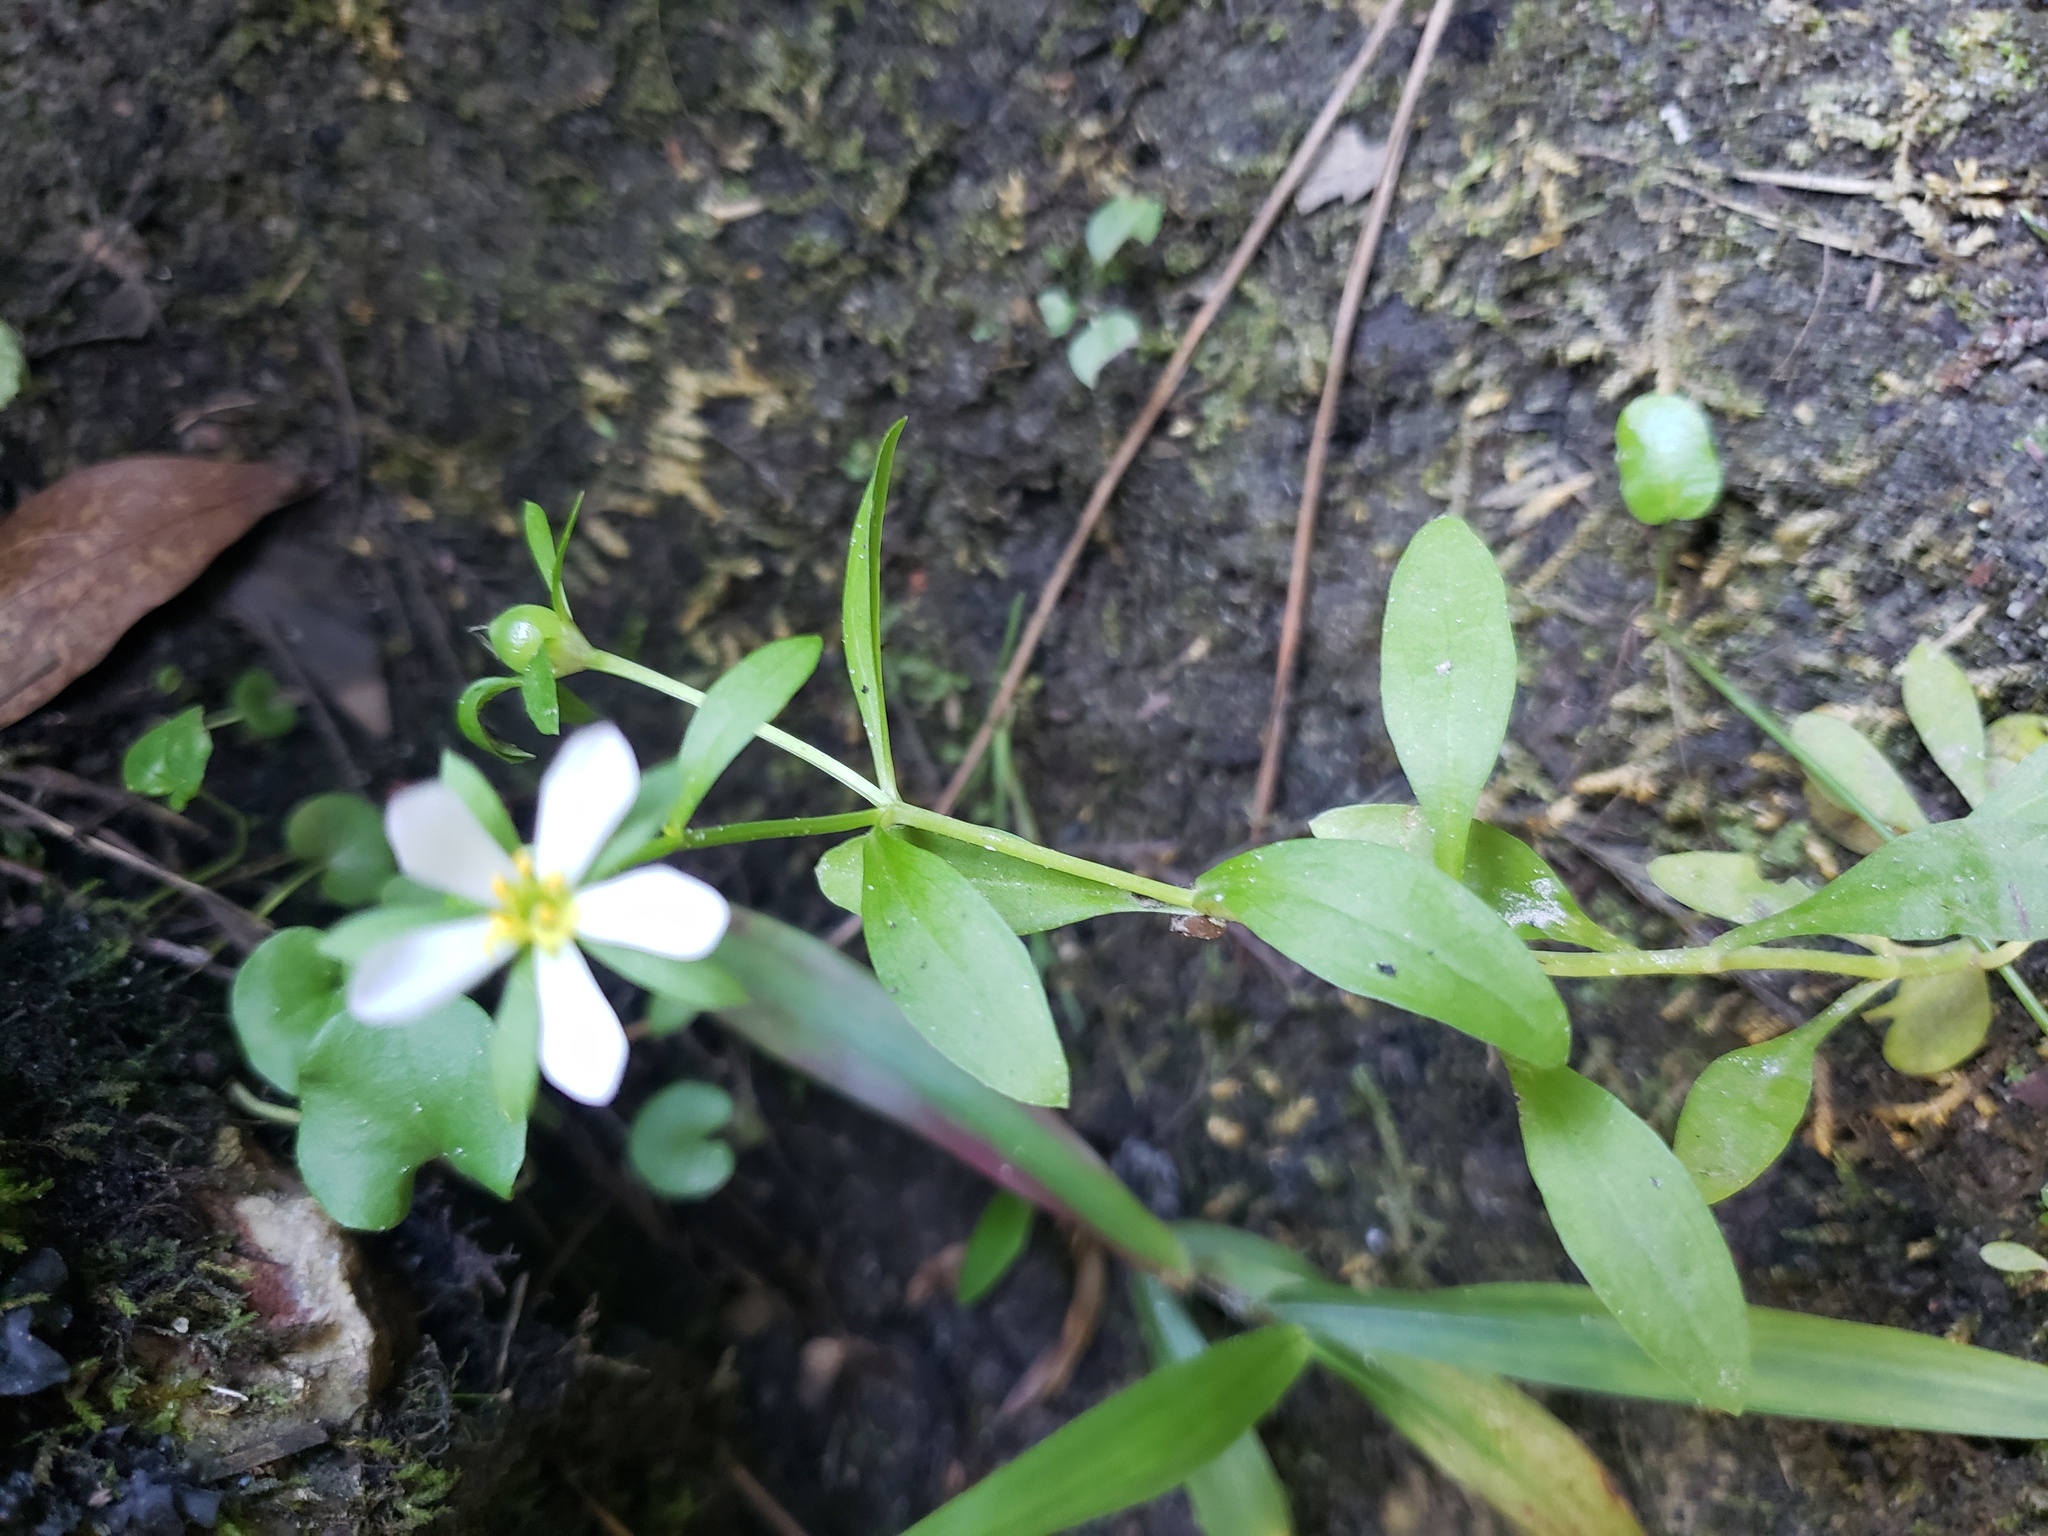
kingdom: Plantae
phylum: Tracheophyta
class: Magnoliopsida
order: Gentianales
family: Gentianaceae
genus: Sabatia
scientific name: Sabatia calycina
